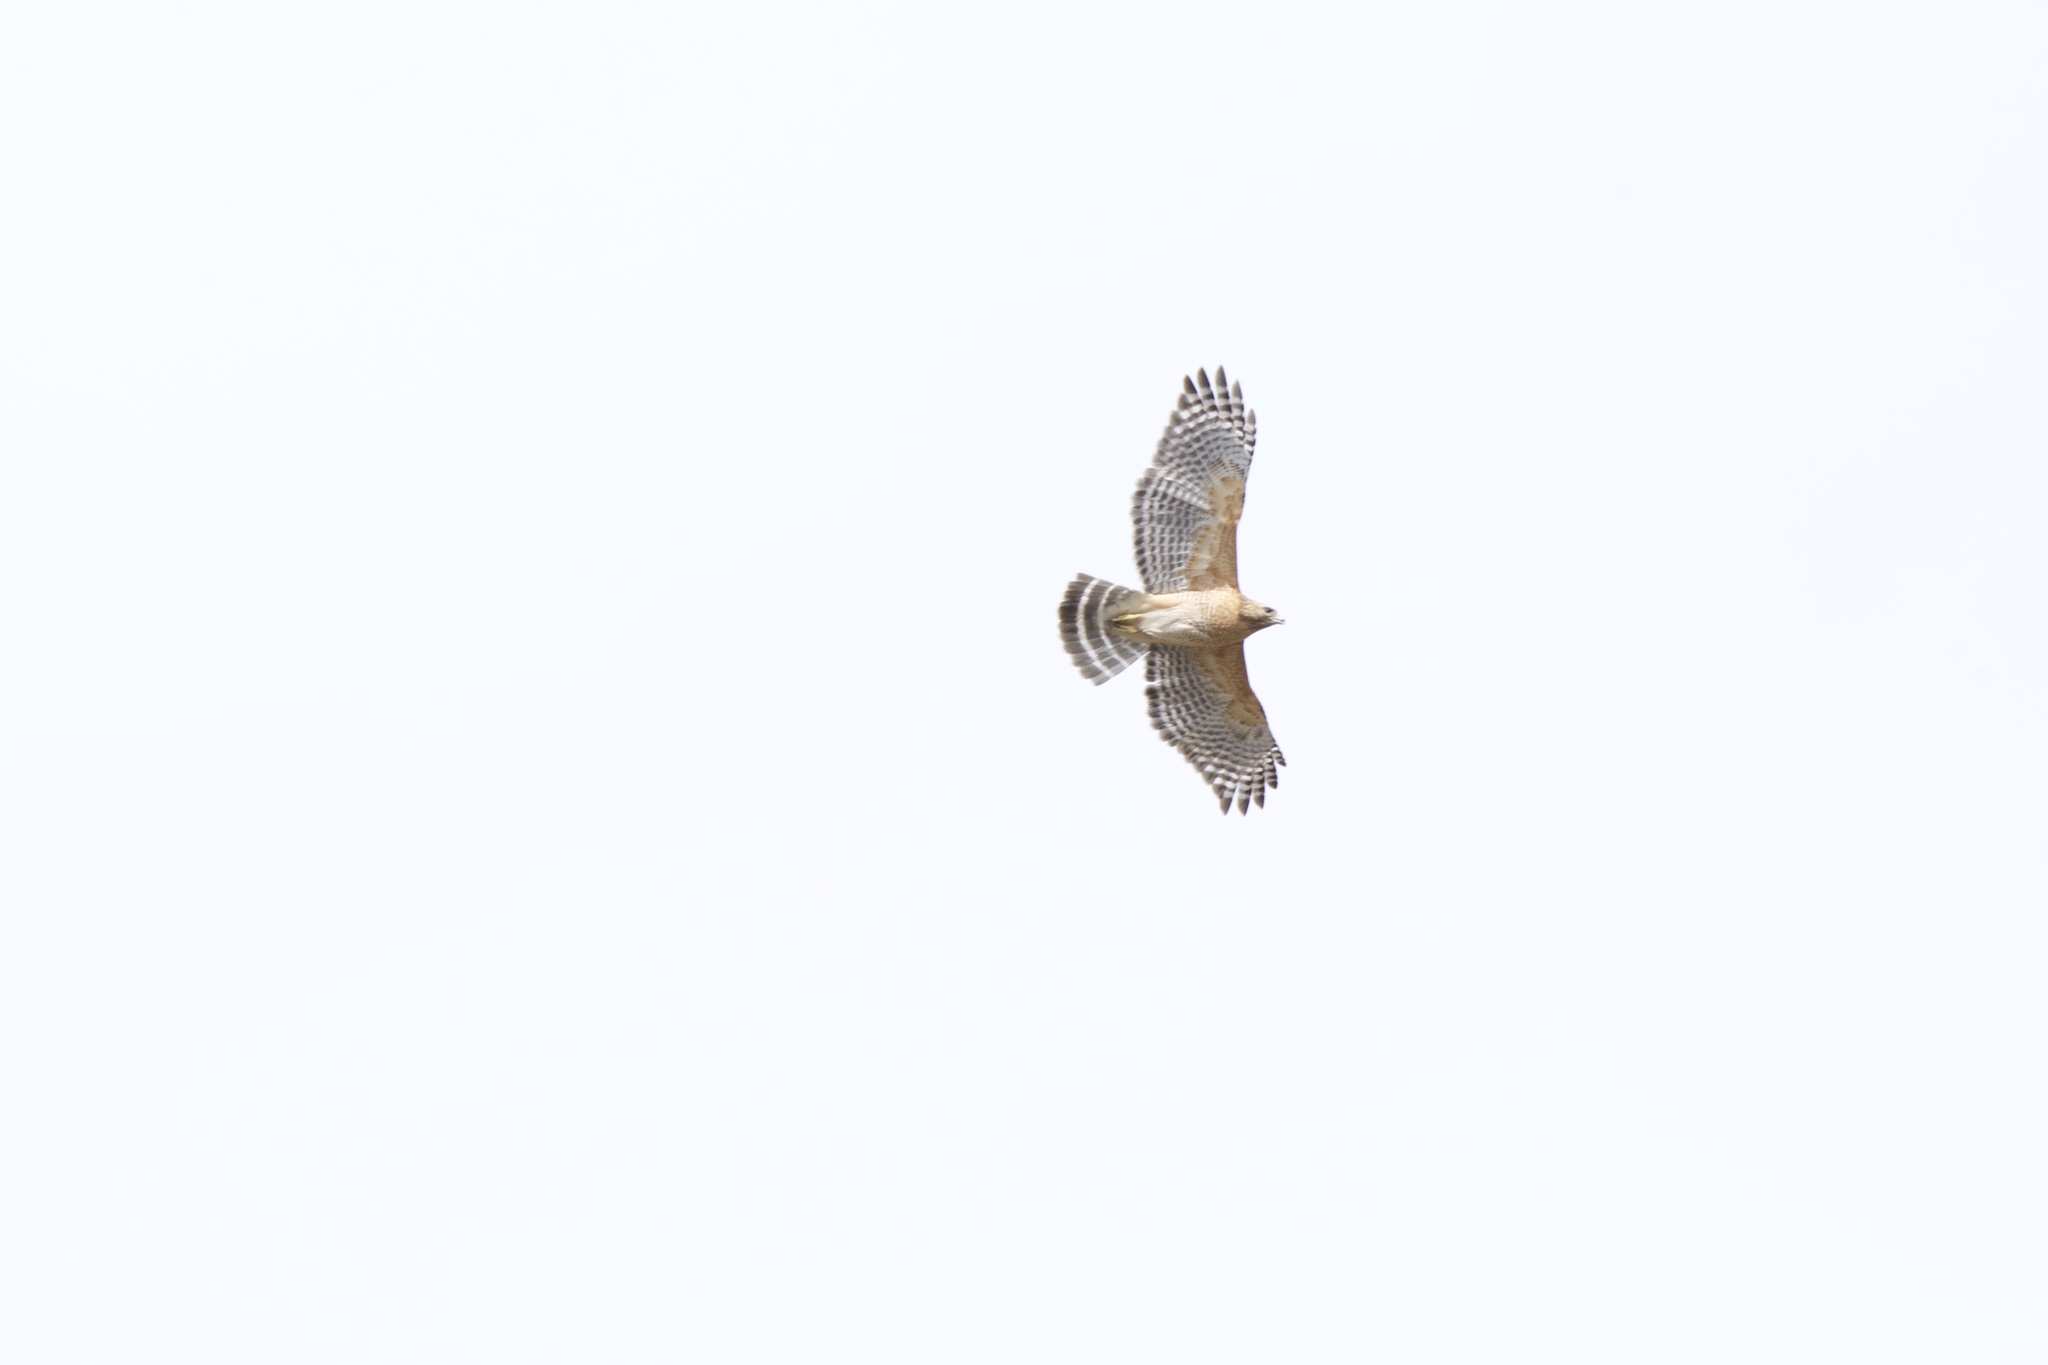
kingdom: Animalia
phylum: Chordata
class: Aves
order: Accipitriformes
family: Accipitridae
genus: Buteo
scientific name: Buteo lineatus
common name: Red-shouldered hawk
